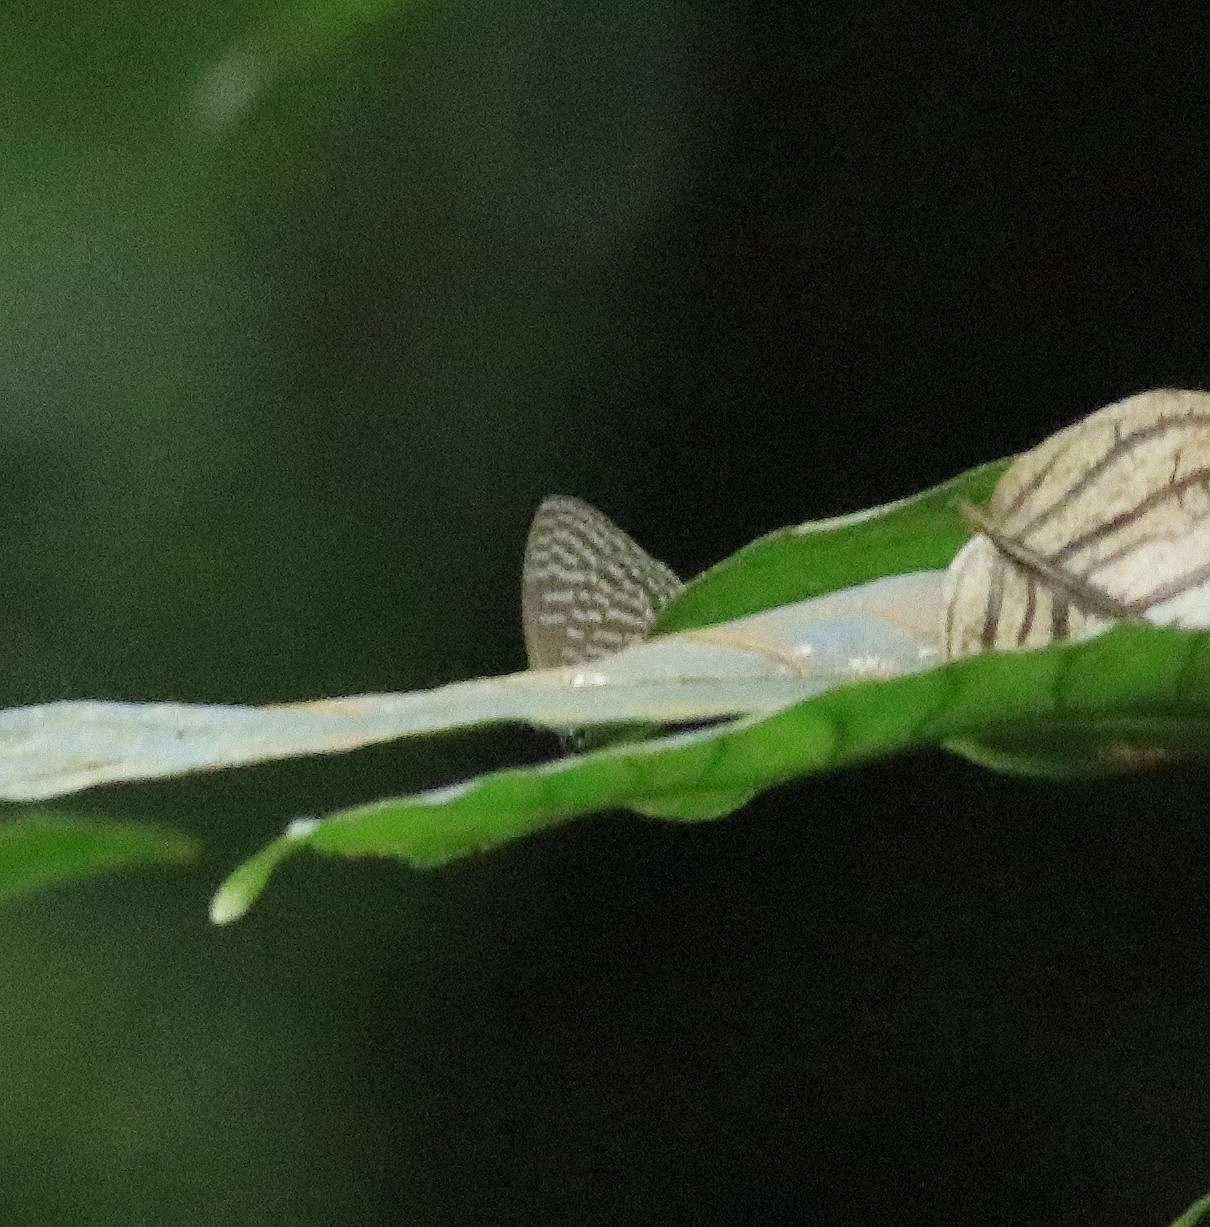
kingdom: Animalia
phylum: Arthropoda
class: Insecta
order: Lepidoptera
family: Lycaenidae
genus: Jamides
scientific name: Jamides alecto
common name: Metallic cerulean
